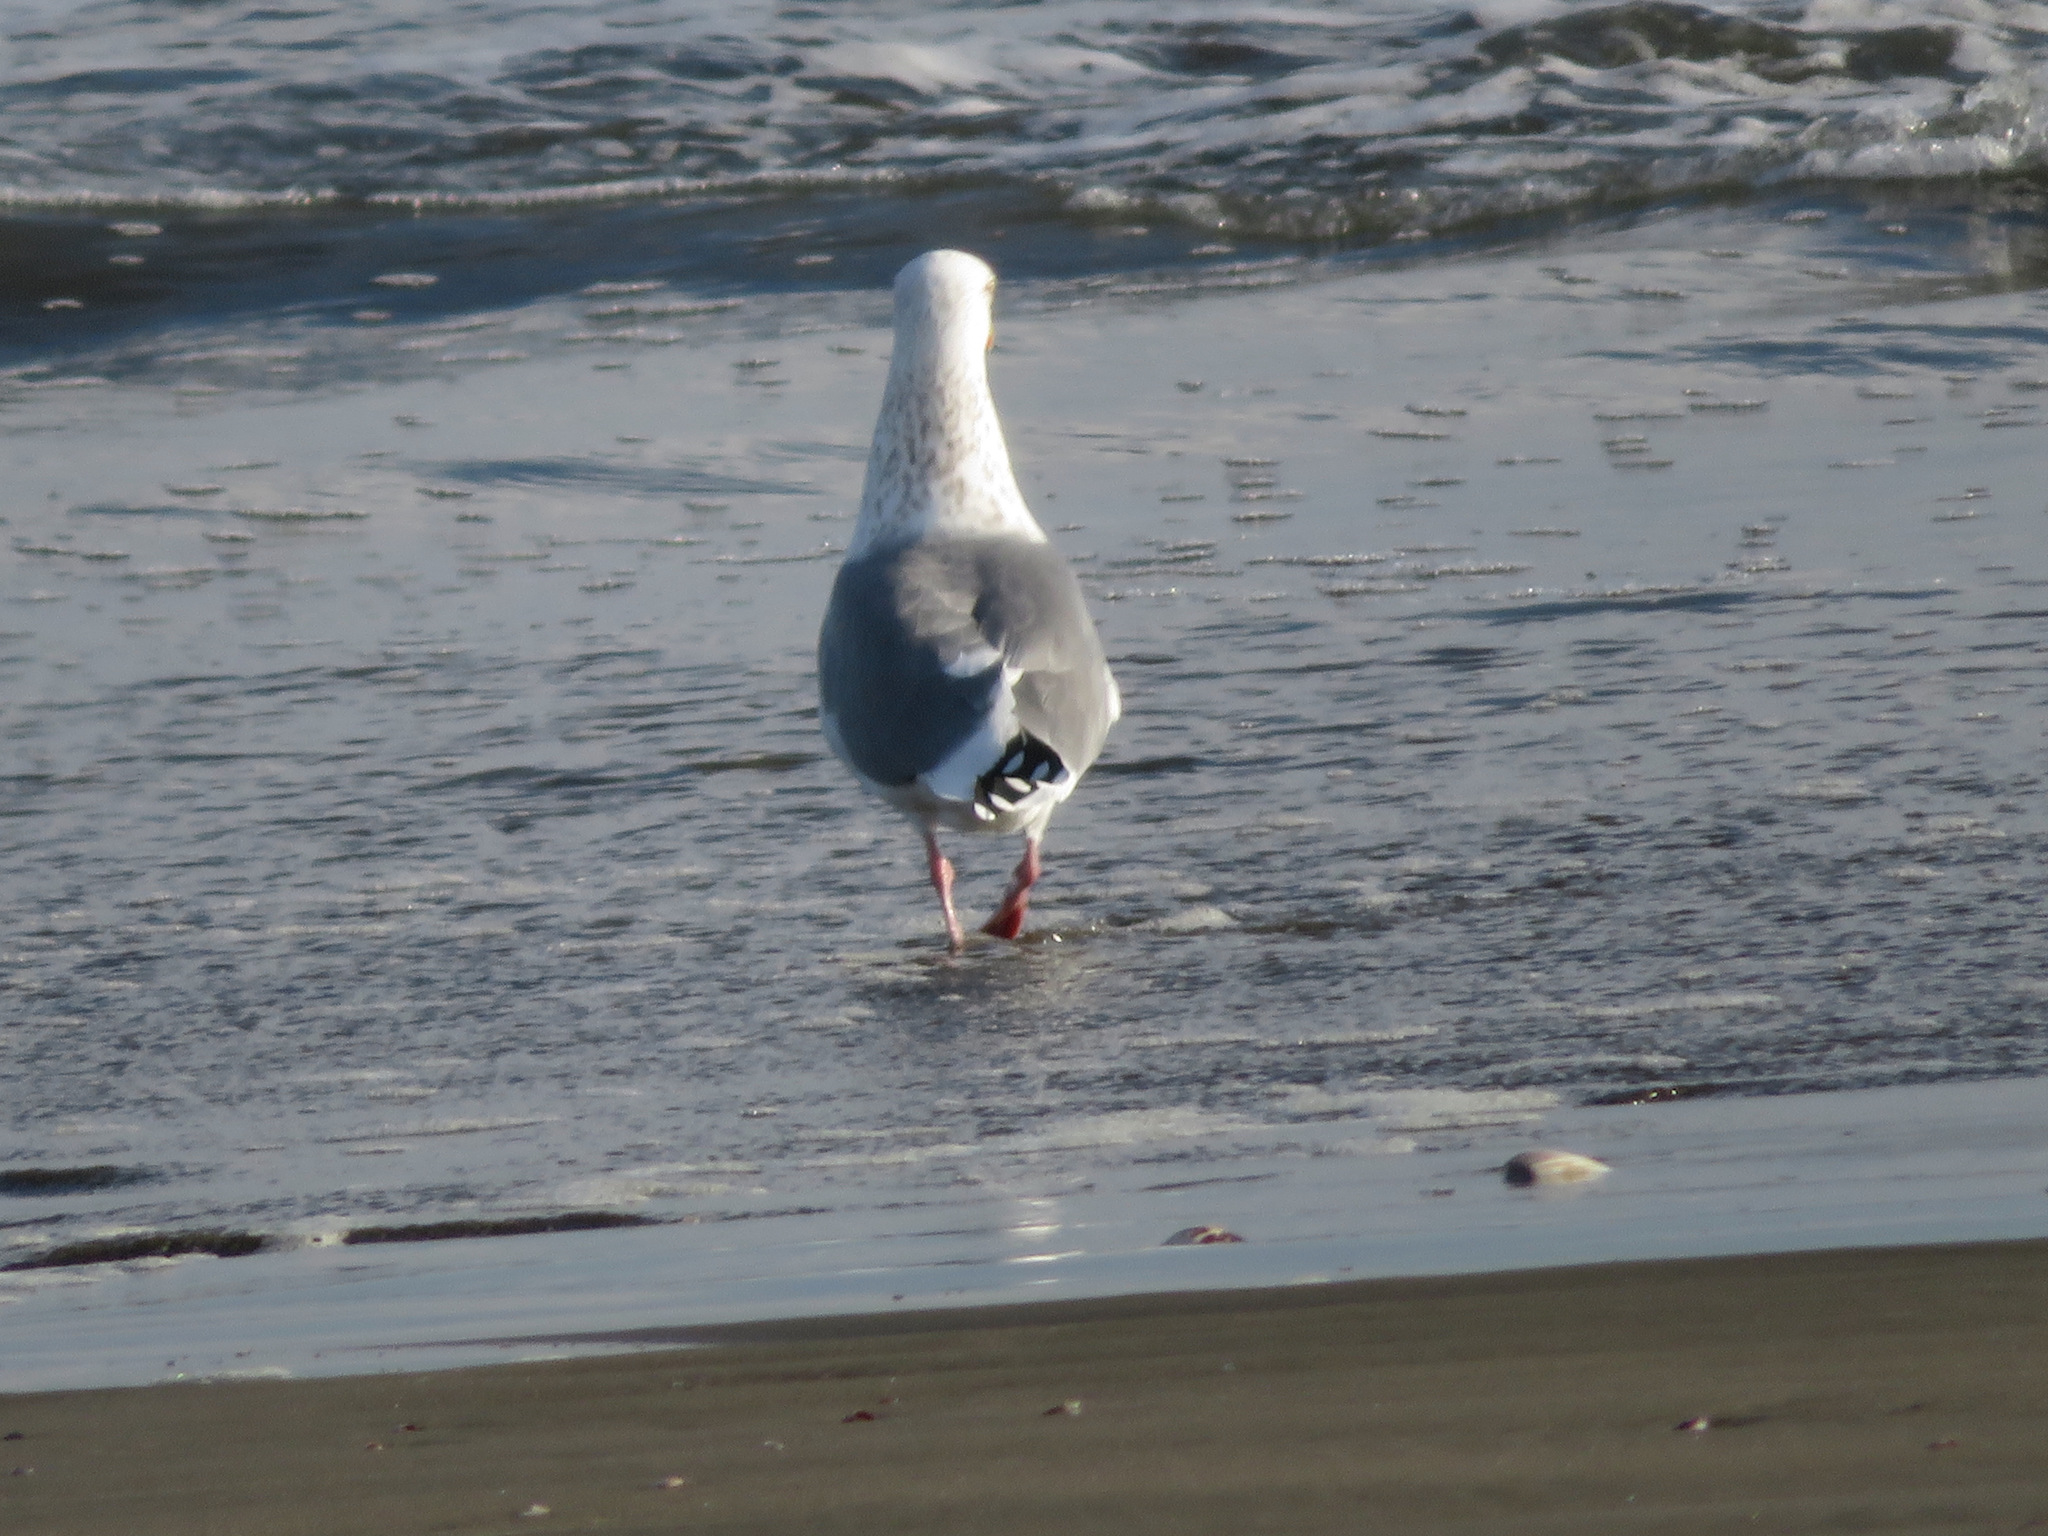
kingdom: Animalia
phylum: Chordata
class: Aves
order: Charadriiformes
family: Laridae
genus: Larus
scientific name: Larus vegae
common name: Vega gull
